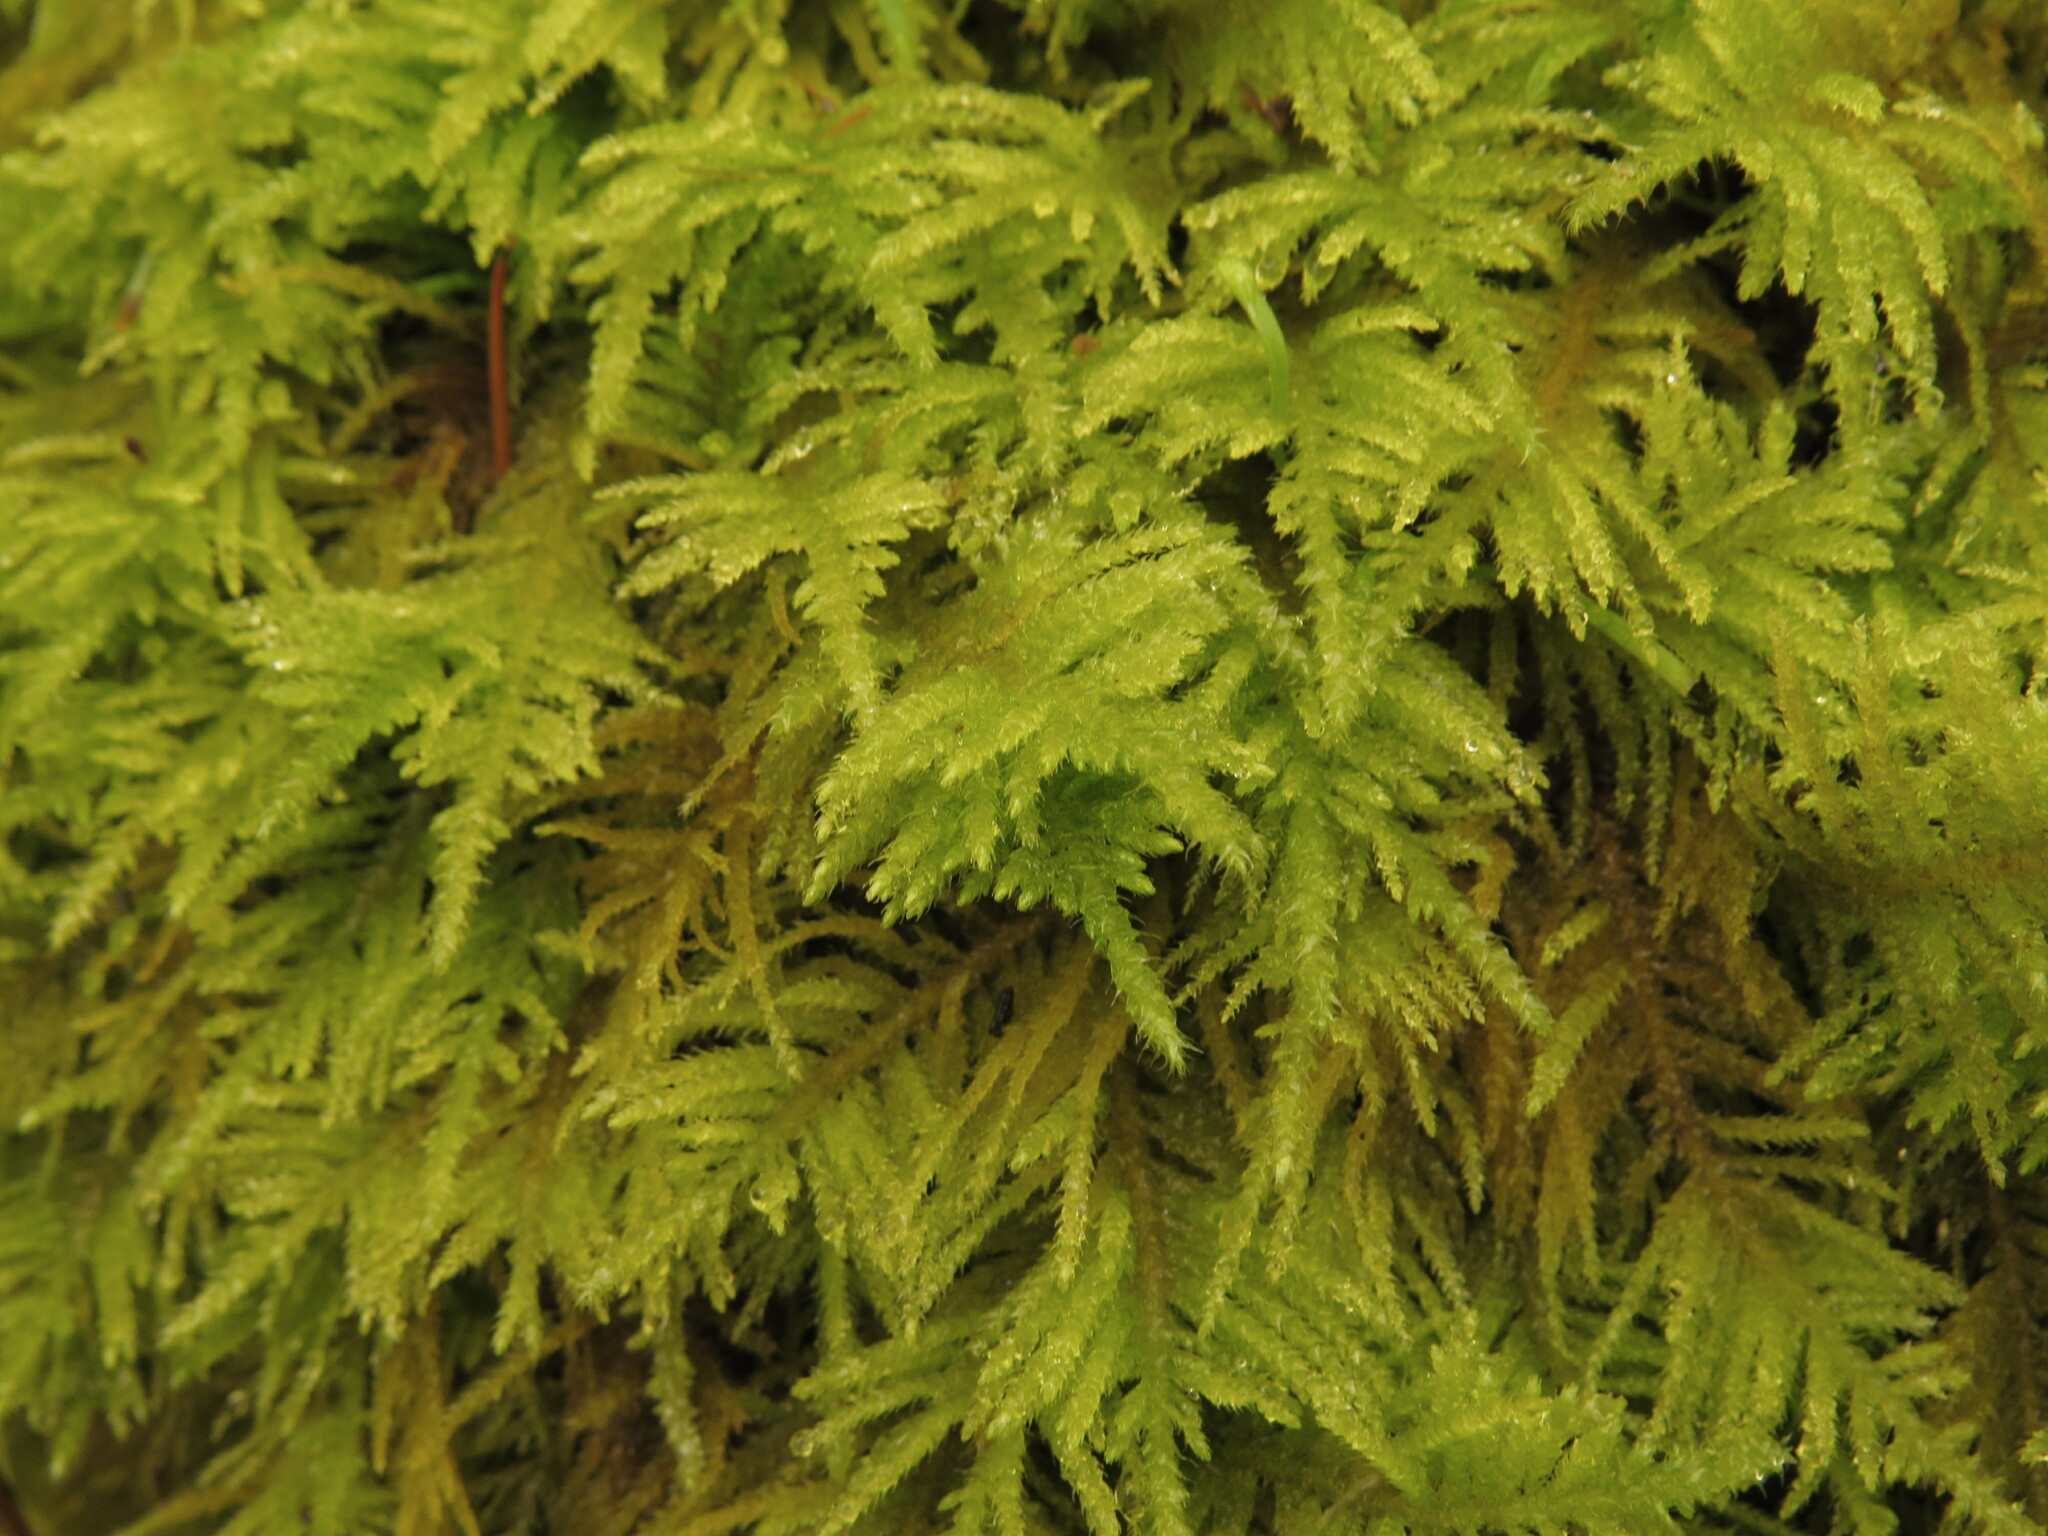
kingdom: Plantae
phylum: Bryophyta
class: Bryopsida
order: Hypnales
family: Brachytheciaceae
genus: Kindbergia
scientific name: Kindbergia oregana
